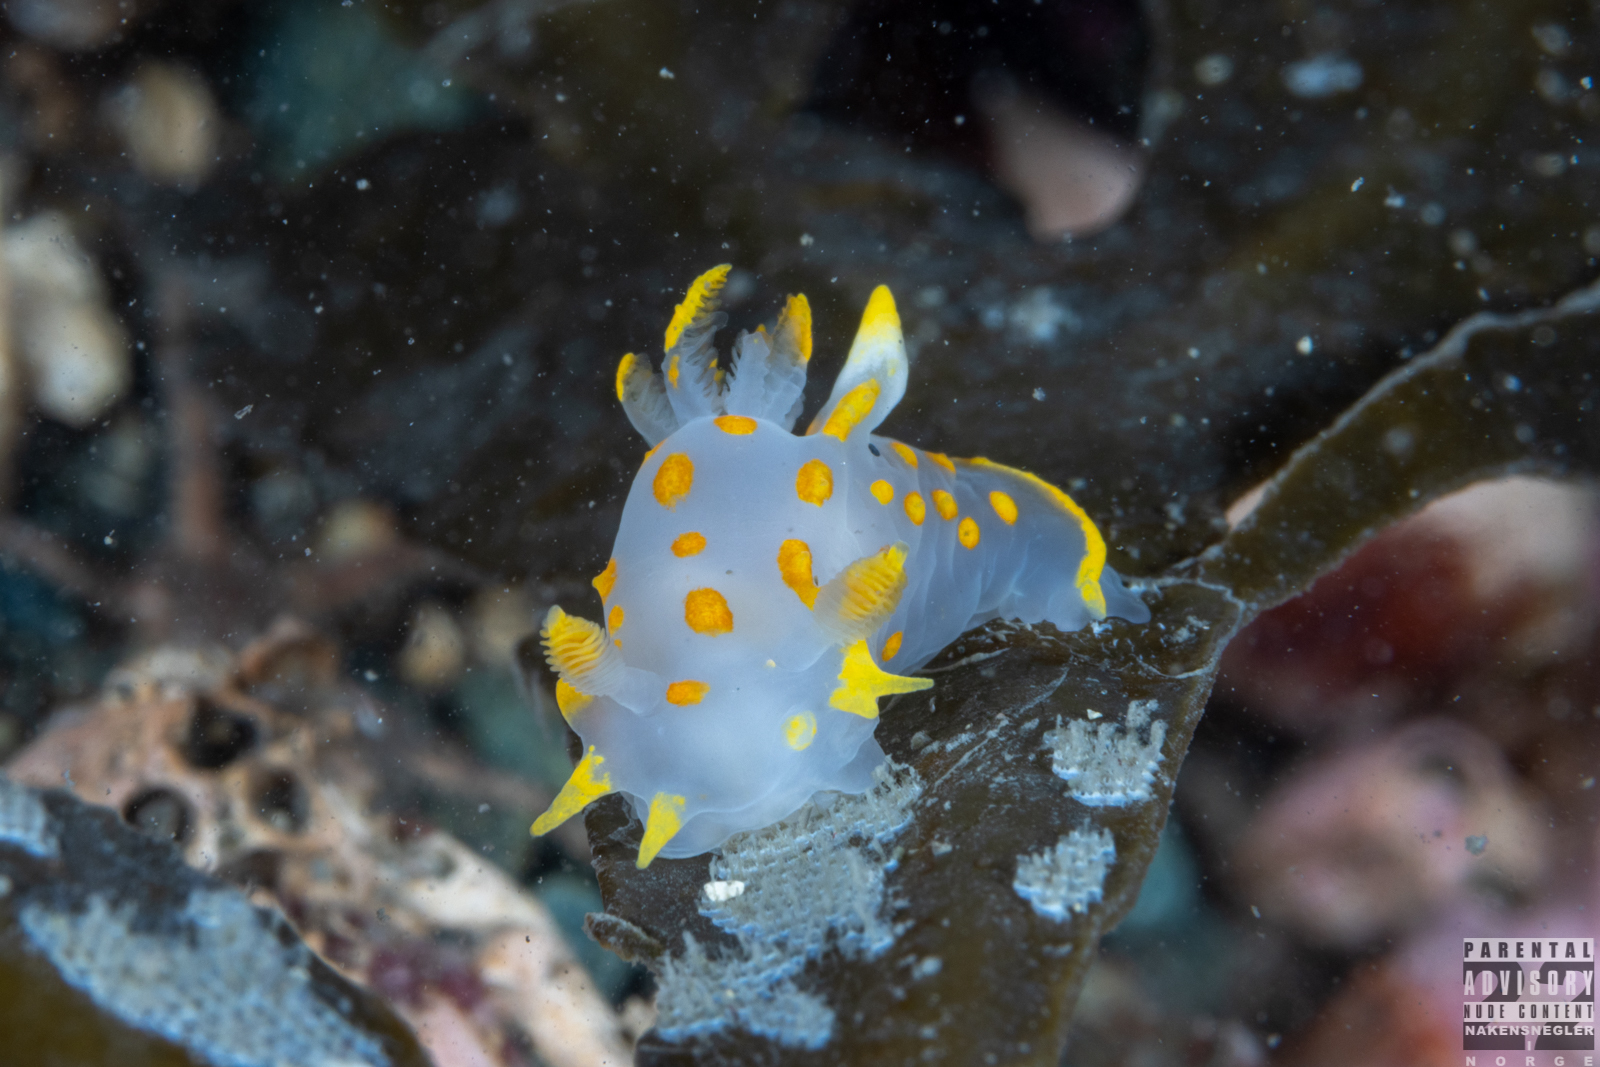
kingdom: Animalia
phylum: Mollusca
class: Gastropoda
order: Nudibranchia
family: Polyceridae
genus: Polycera
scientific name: Polycera quadrilineata
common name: Four-striped polycera
